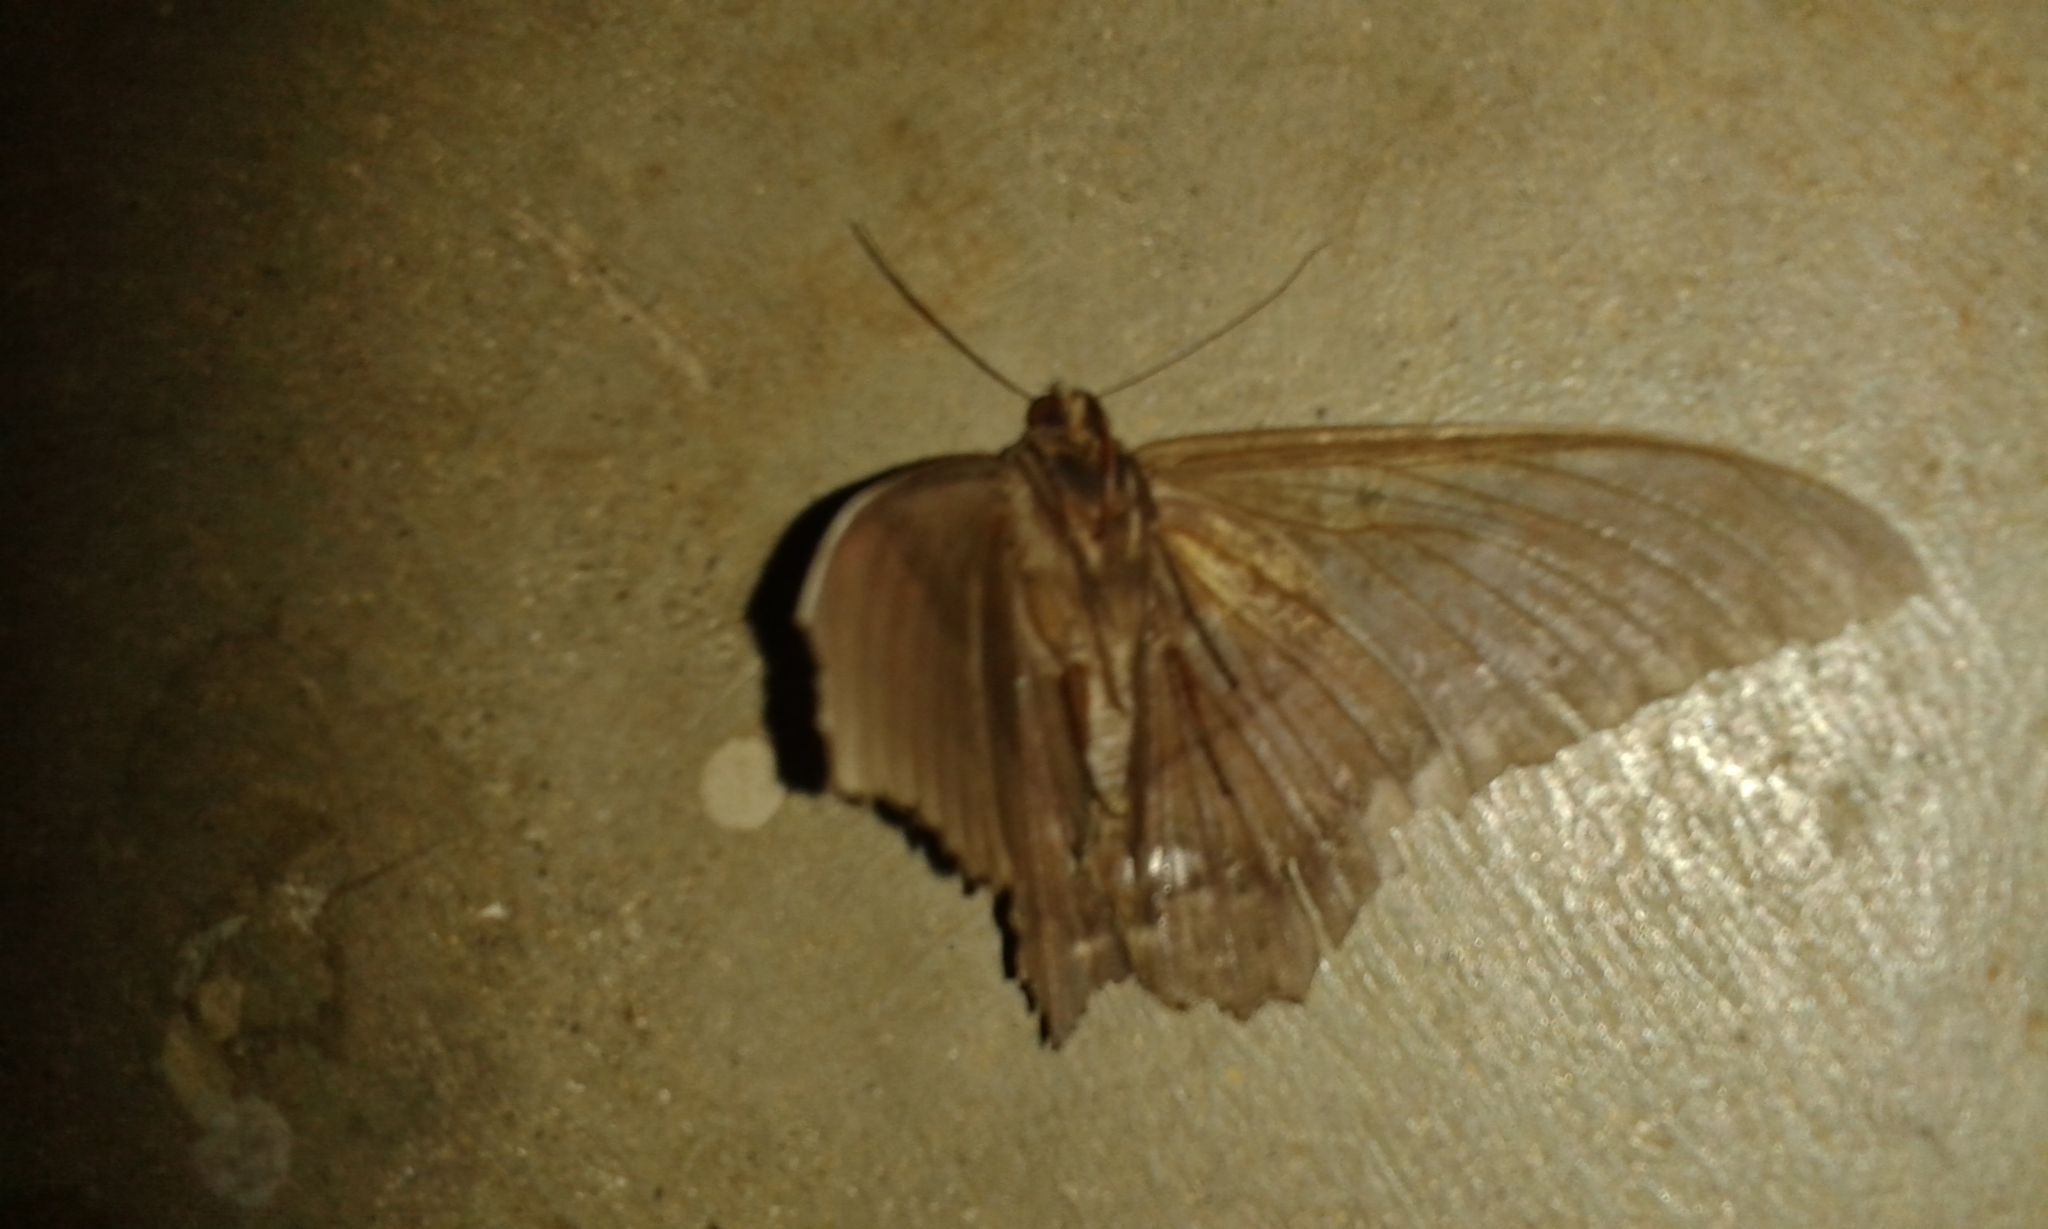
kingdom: Animalia
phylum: Arthropoda
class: Insecta
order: Lepidoptera
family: Erebidae
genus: Ascalapha
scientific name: Ascalapha odorata
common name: Black witch
